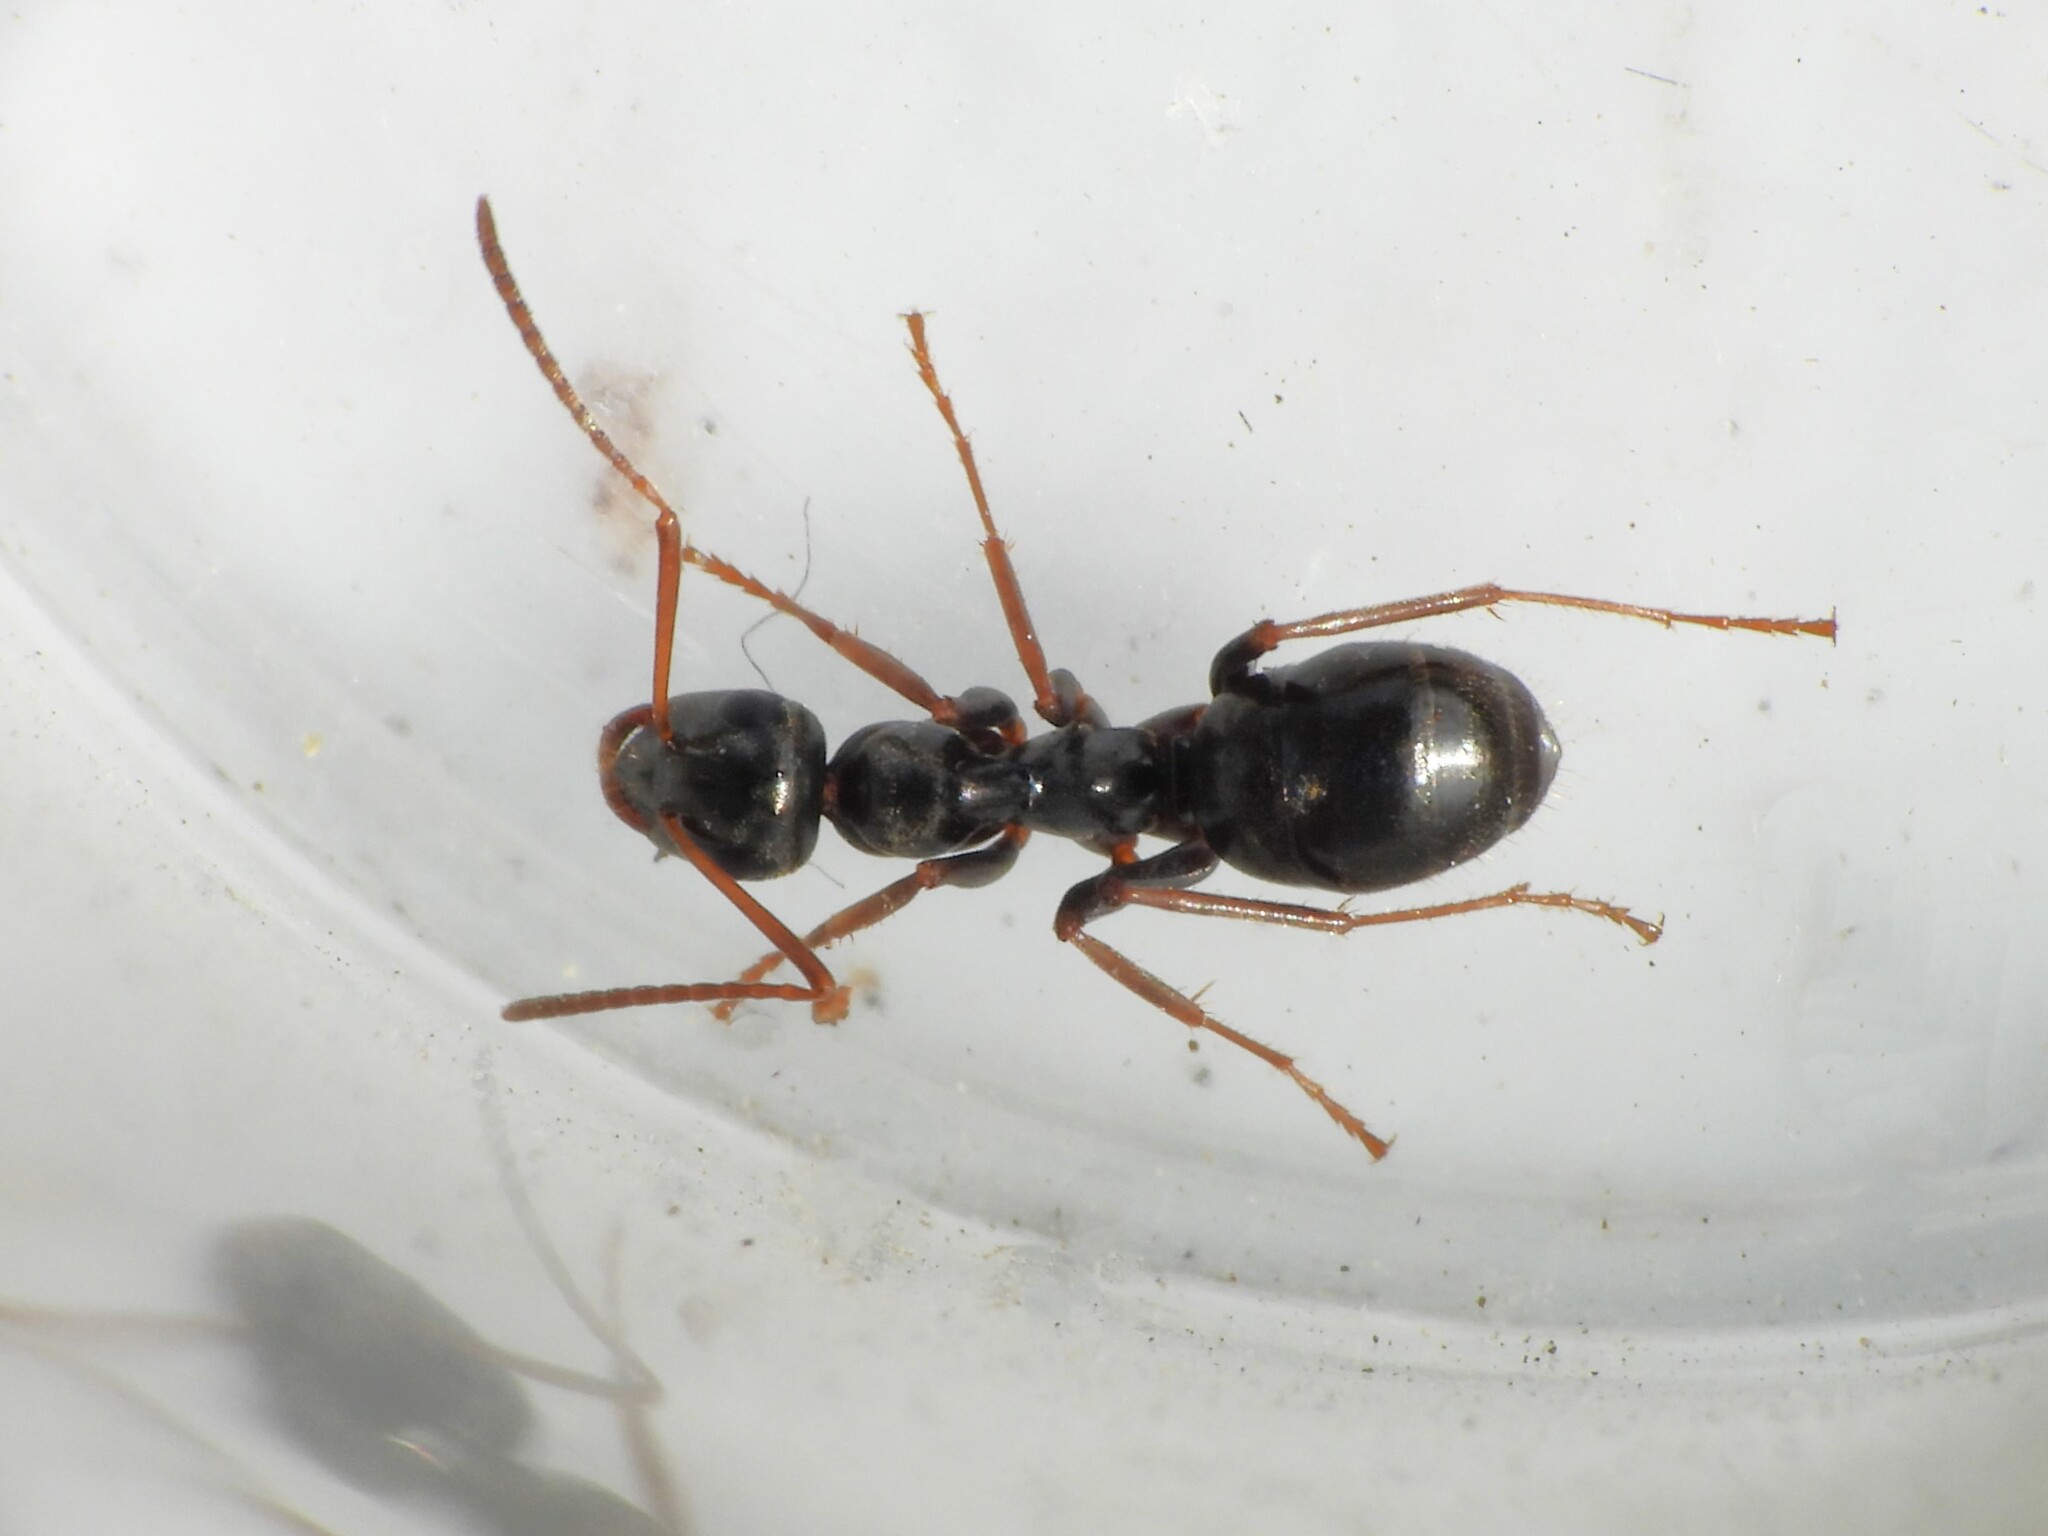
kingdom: Animalia
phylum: Arthropoda
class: Insecta
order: Hymenoptera
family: Formicidae
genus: Formica
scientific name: Formica gagates
